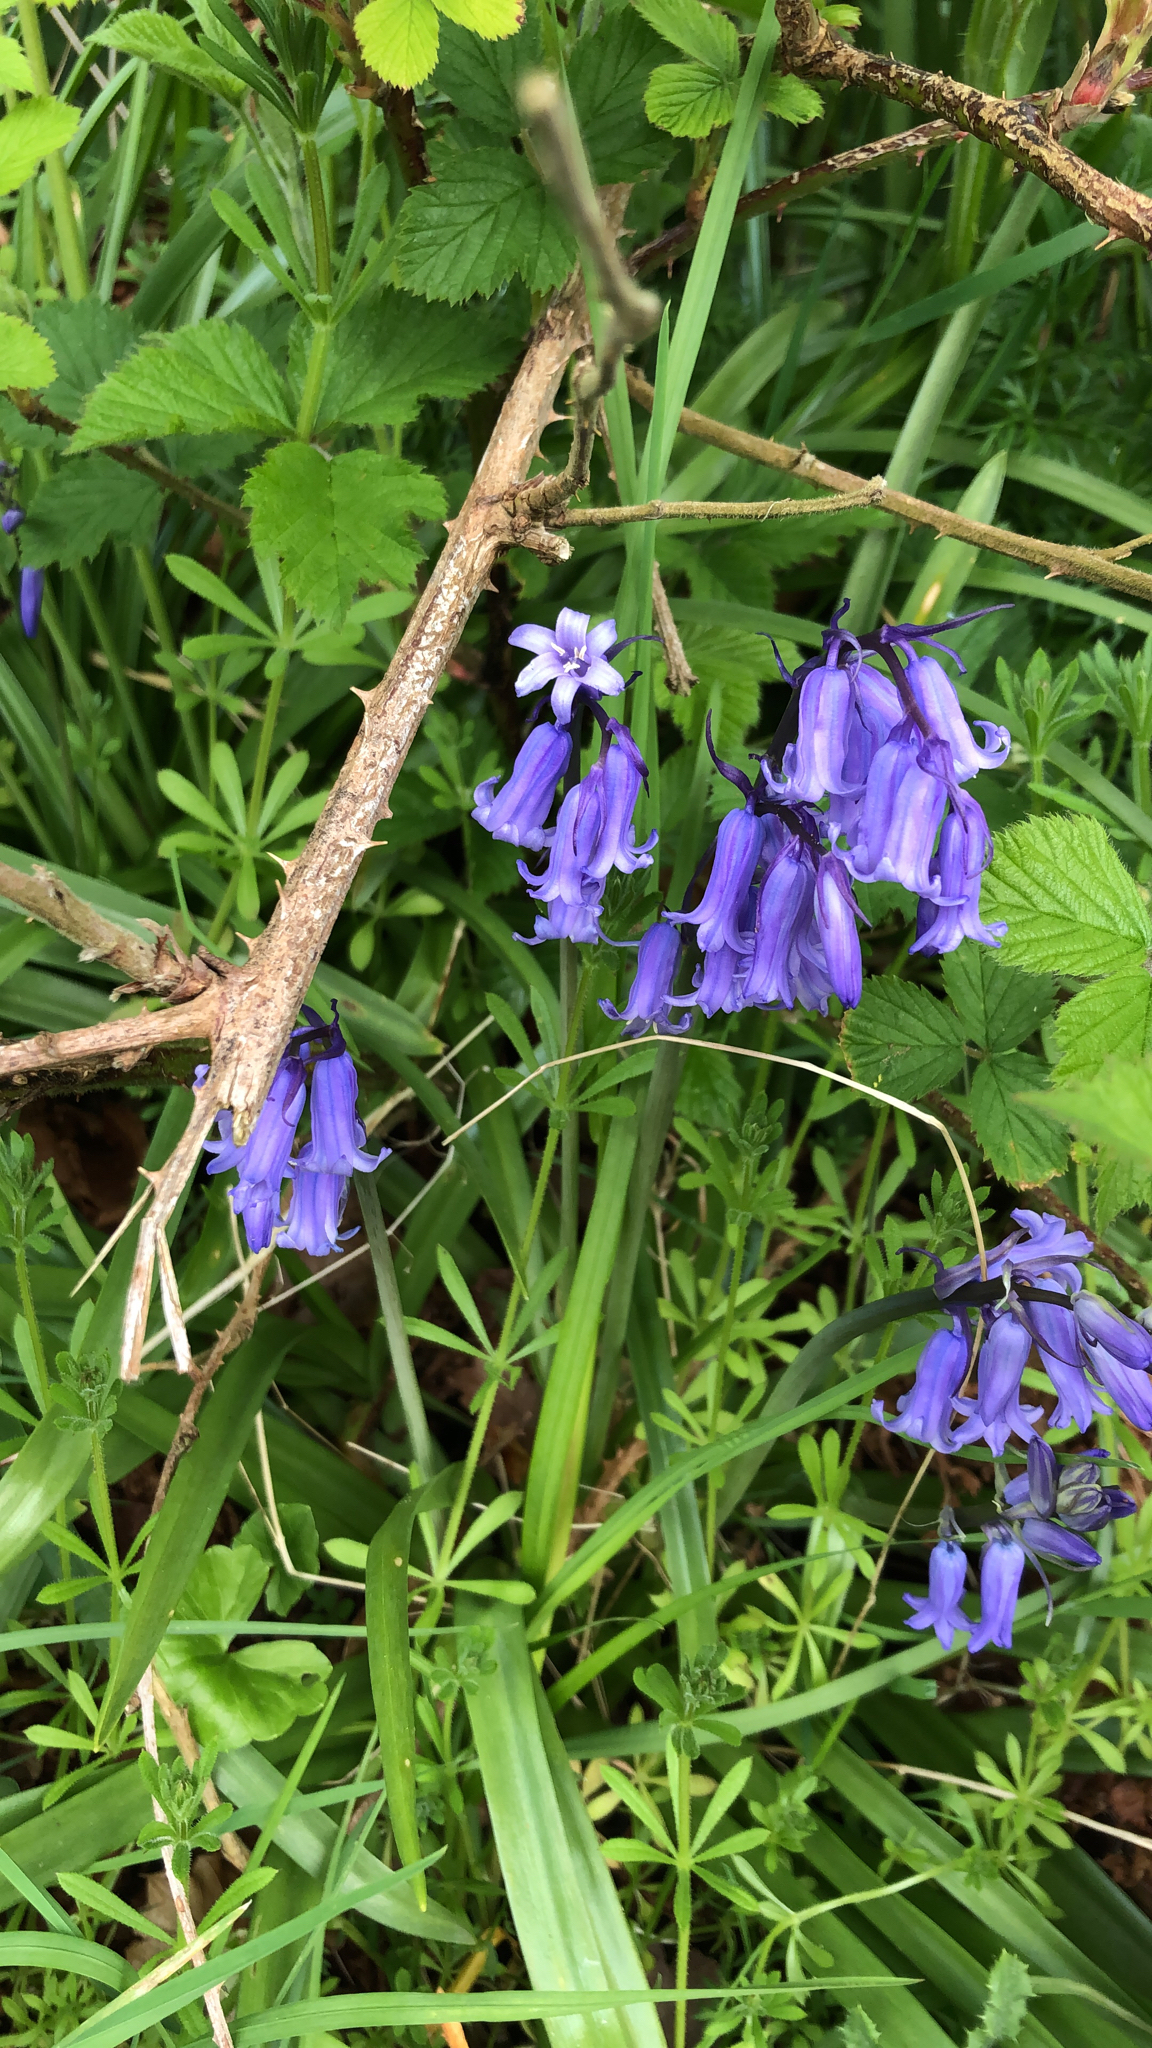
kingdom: Plantae
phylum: Tracheophyta
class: Liliopsida
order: Asparagales
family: Asparagaceae
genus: Hyacinthoides
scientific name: Hyacinthoides non-scripta
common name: Bluebell
